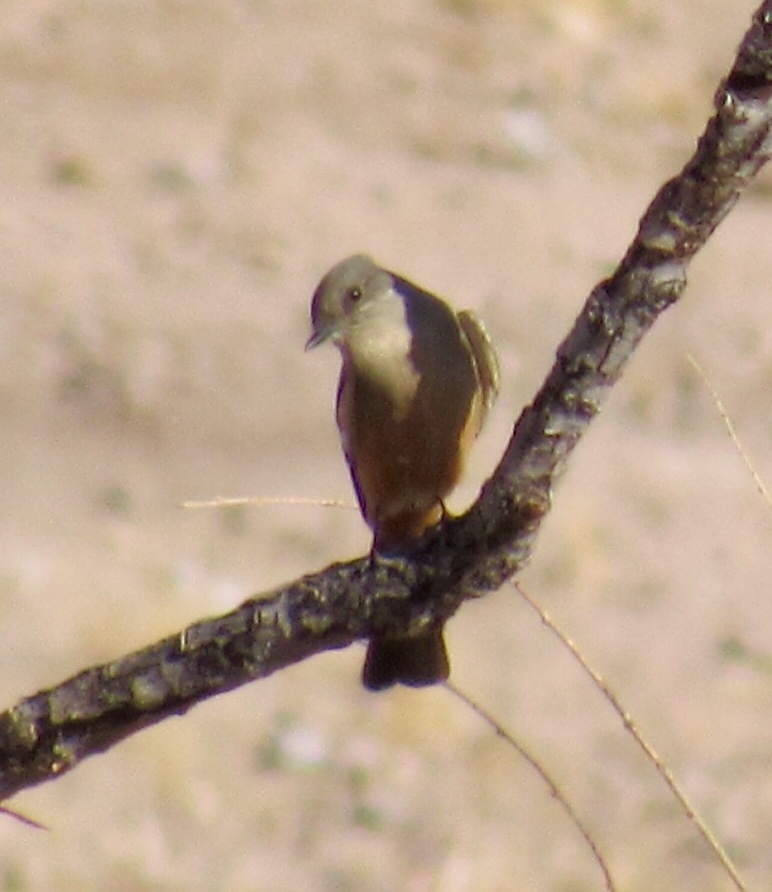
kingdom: Animalia
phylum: Chordata
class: Aves
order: Passeriformes
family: Tyrannidae
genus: Sayornis
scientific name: Sayornis saya
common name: Say's phoebe
